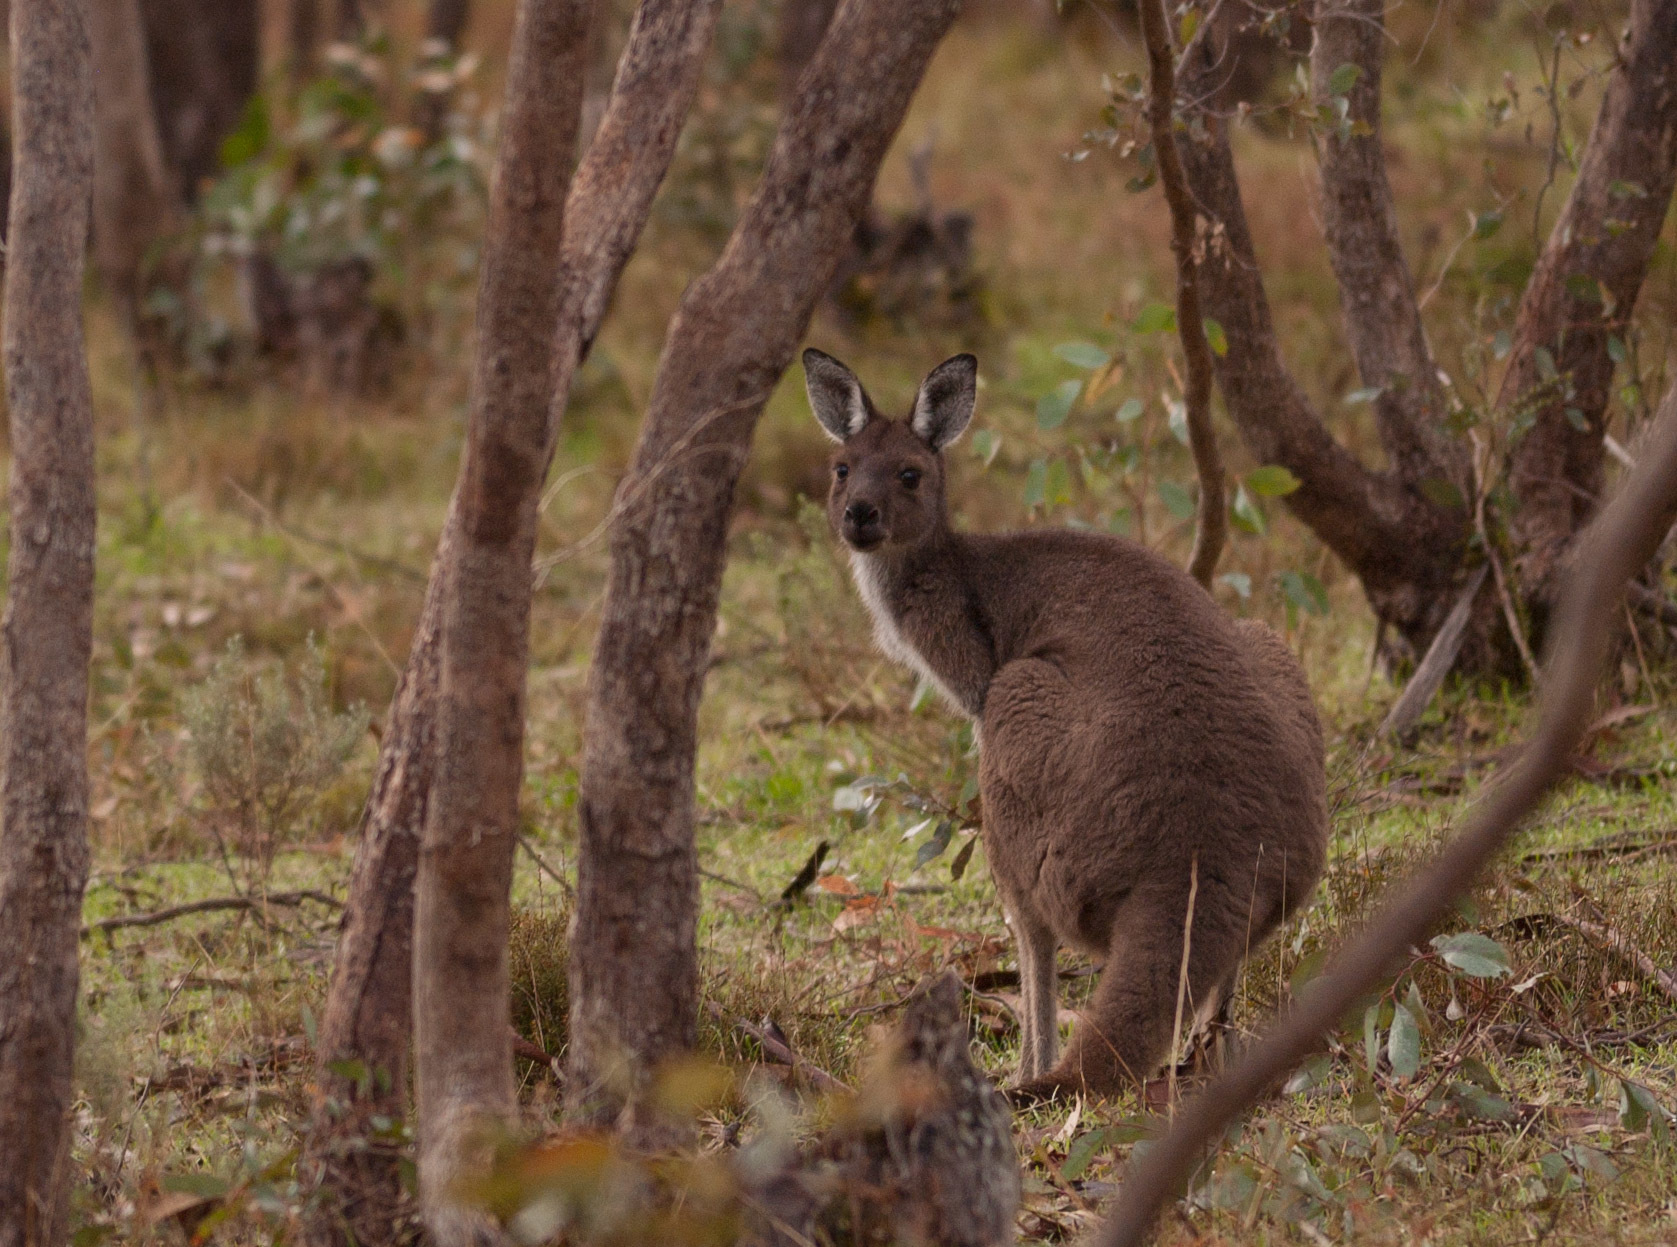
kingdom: Animalia
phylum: Chordata
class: Mammalia
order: Diprotodontia
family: Macropodidae
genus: Macropus
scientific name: Macropus fuliginosus
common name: Western grey kangaroo
